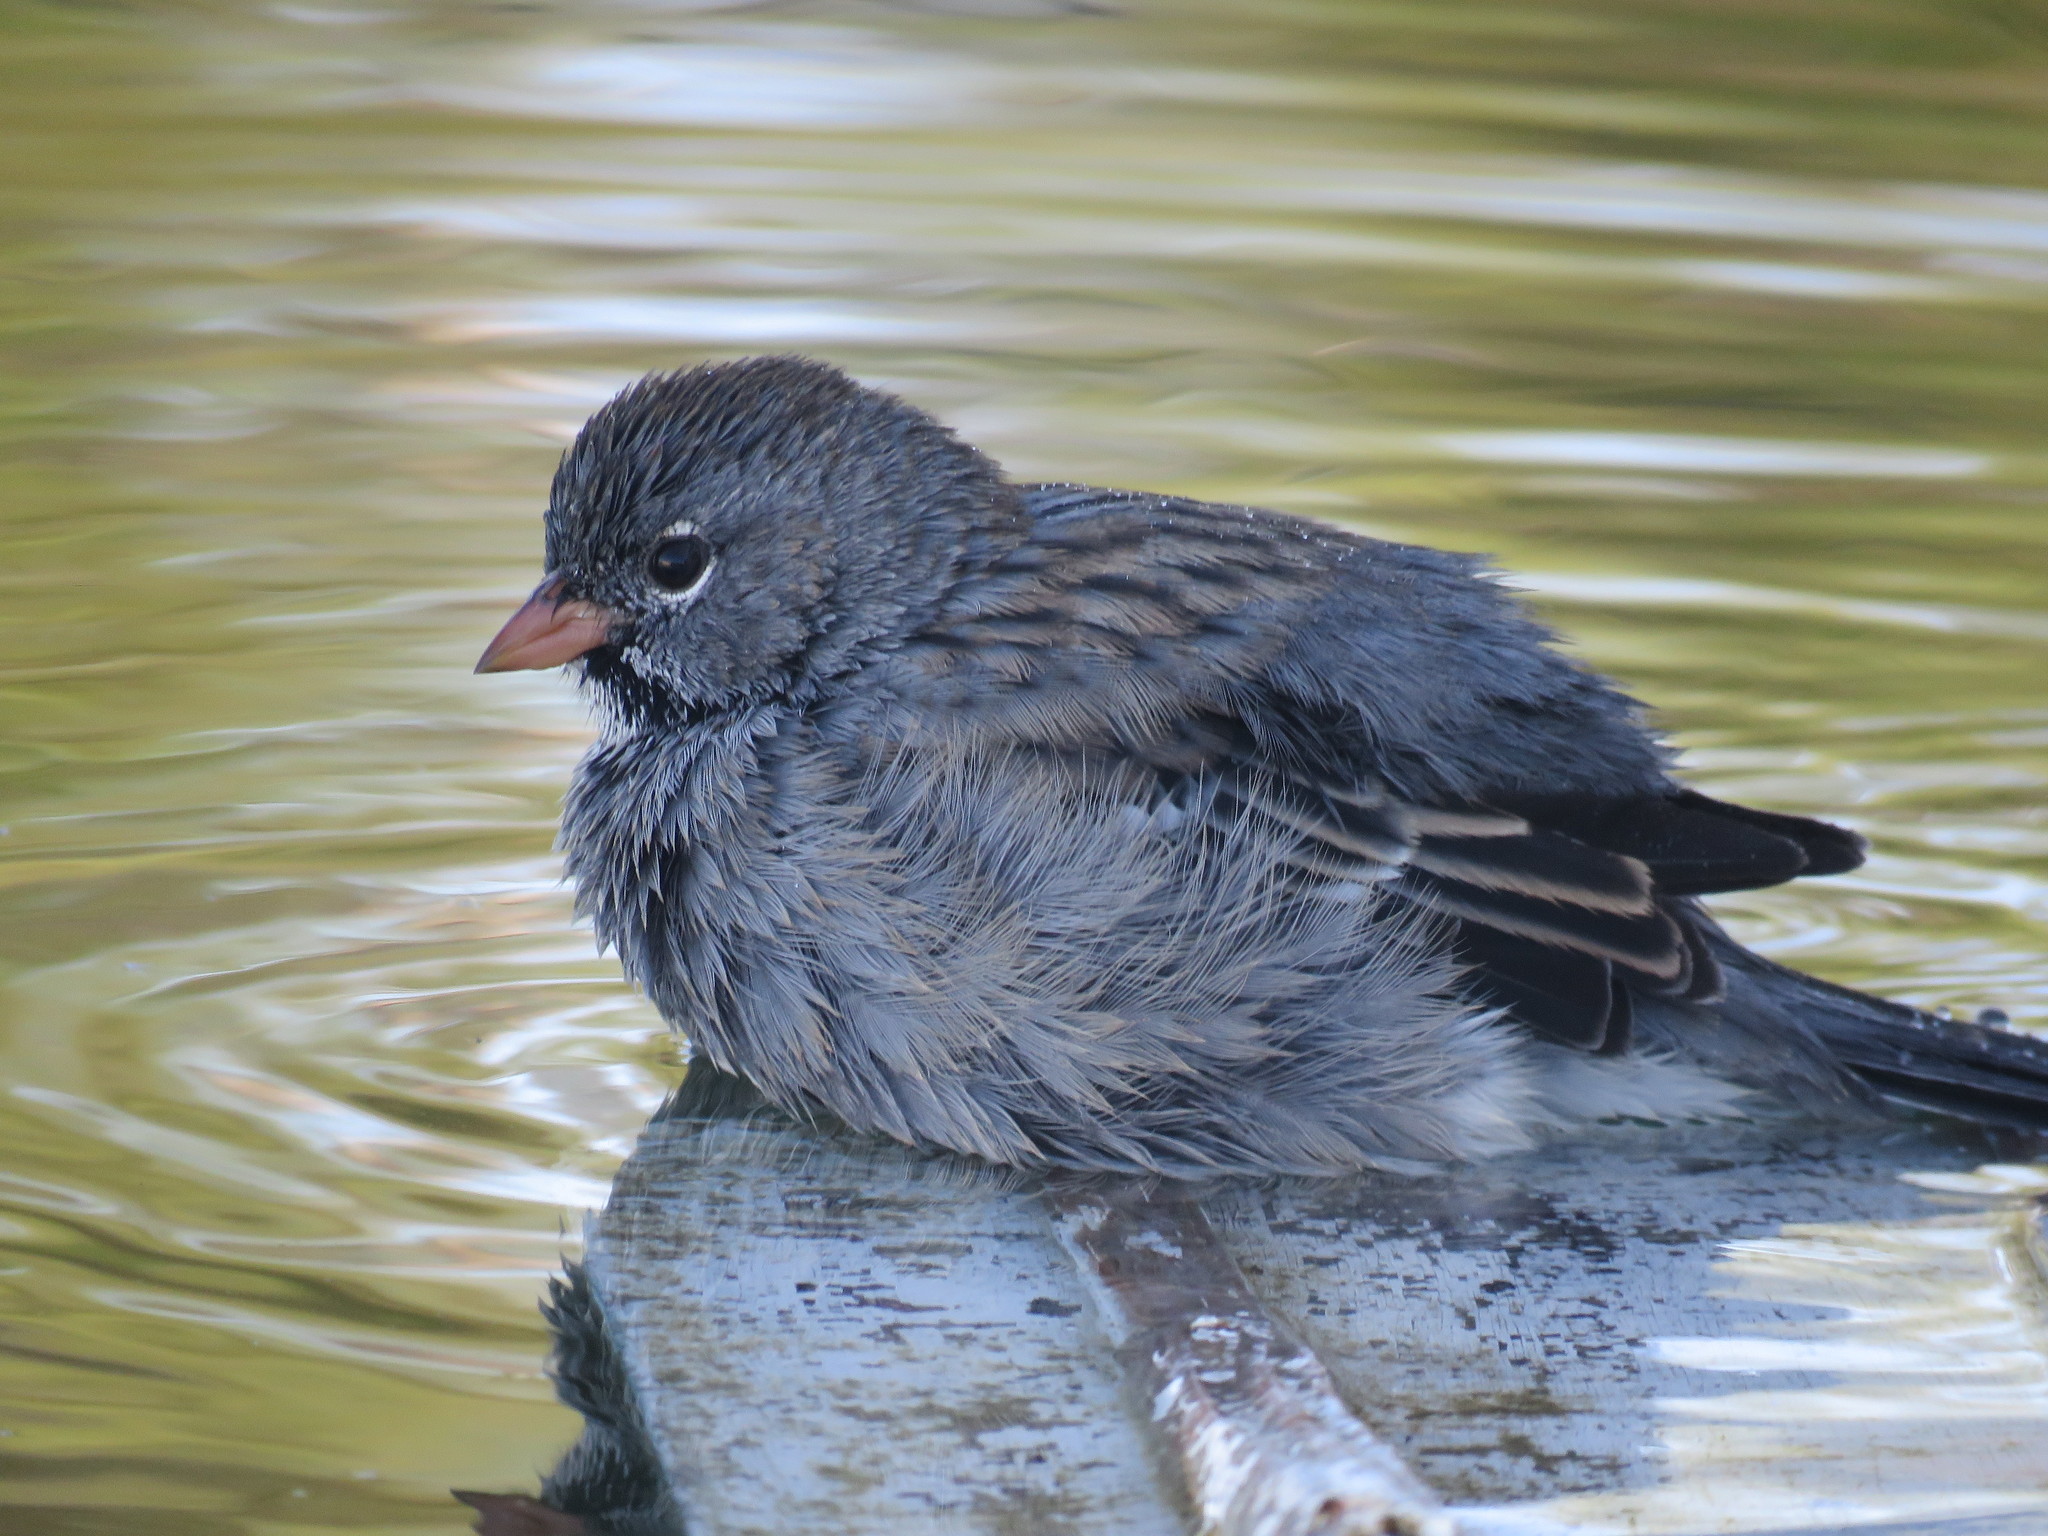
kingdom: Animalia
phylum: Chordata
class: Aves
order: Passeriformes
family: Thraupidae
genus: Rhopospina
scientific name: Rhopospina fruticeti
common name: Mourning sierra finch
